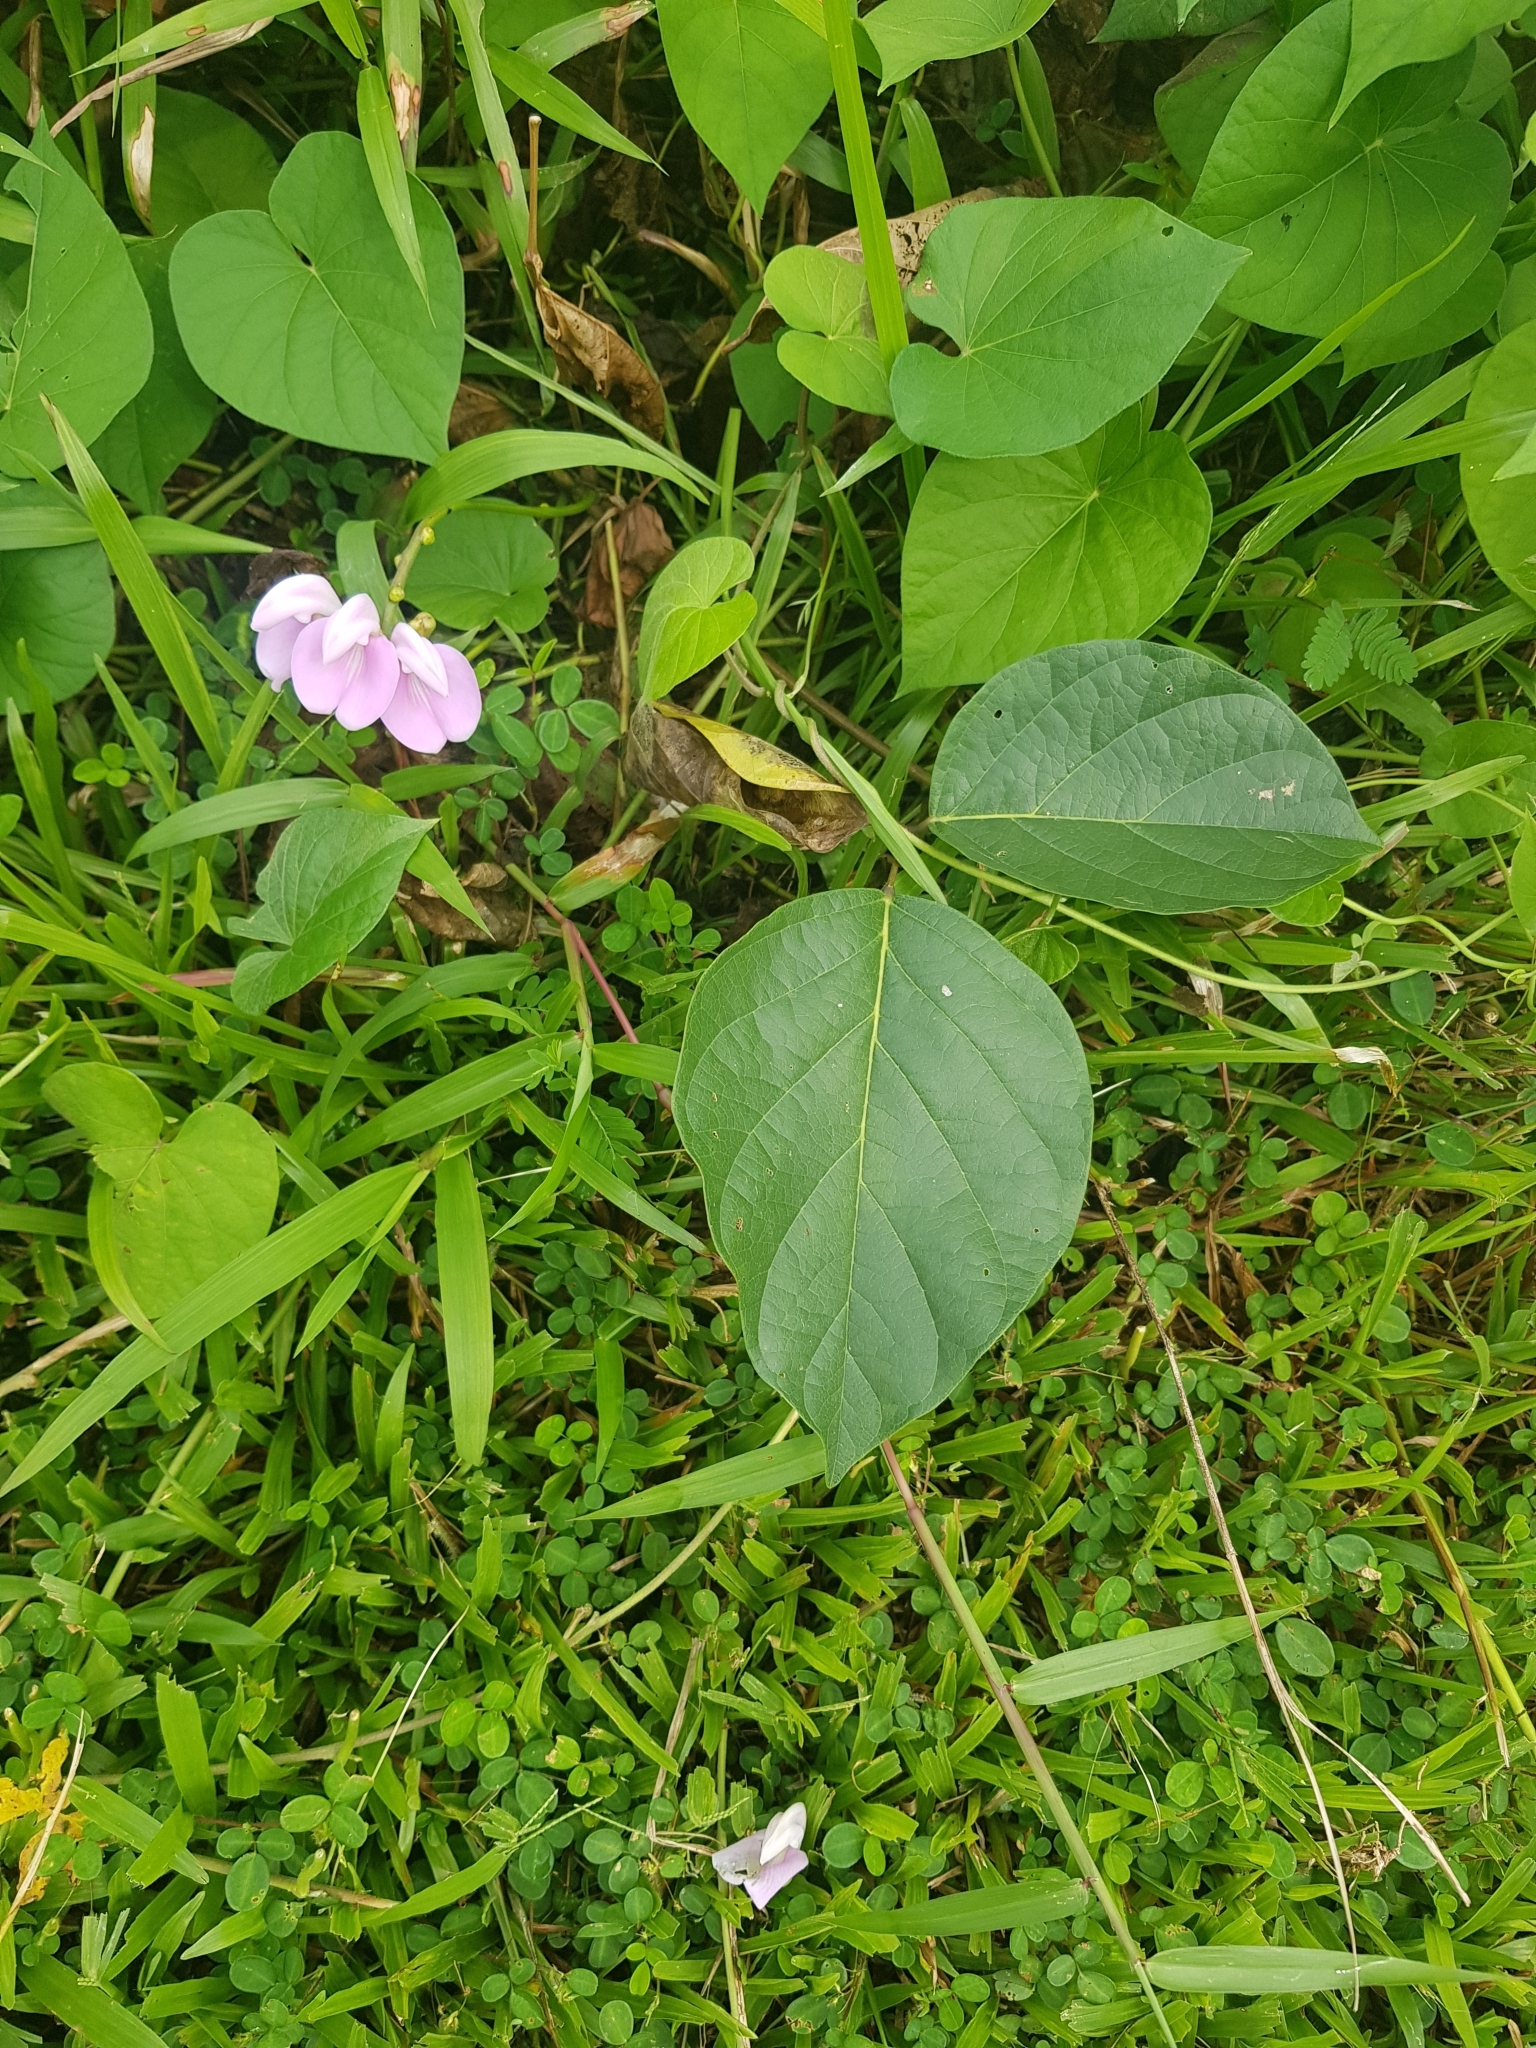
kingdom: Plantae
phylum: Tracheophyta
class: Magnoliopsida
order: Fabales
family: Fabaceae
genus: Canavalia
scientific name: Canavalia cathartica
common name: Maunaloa
